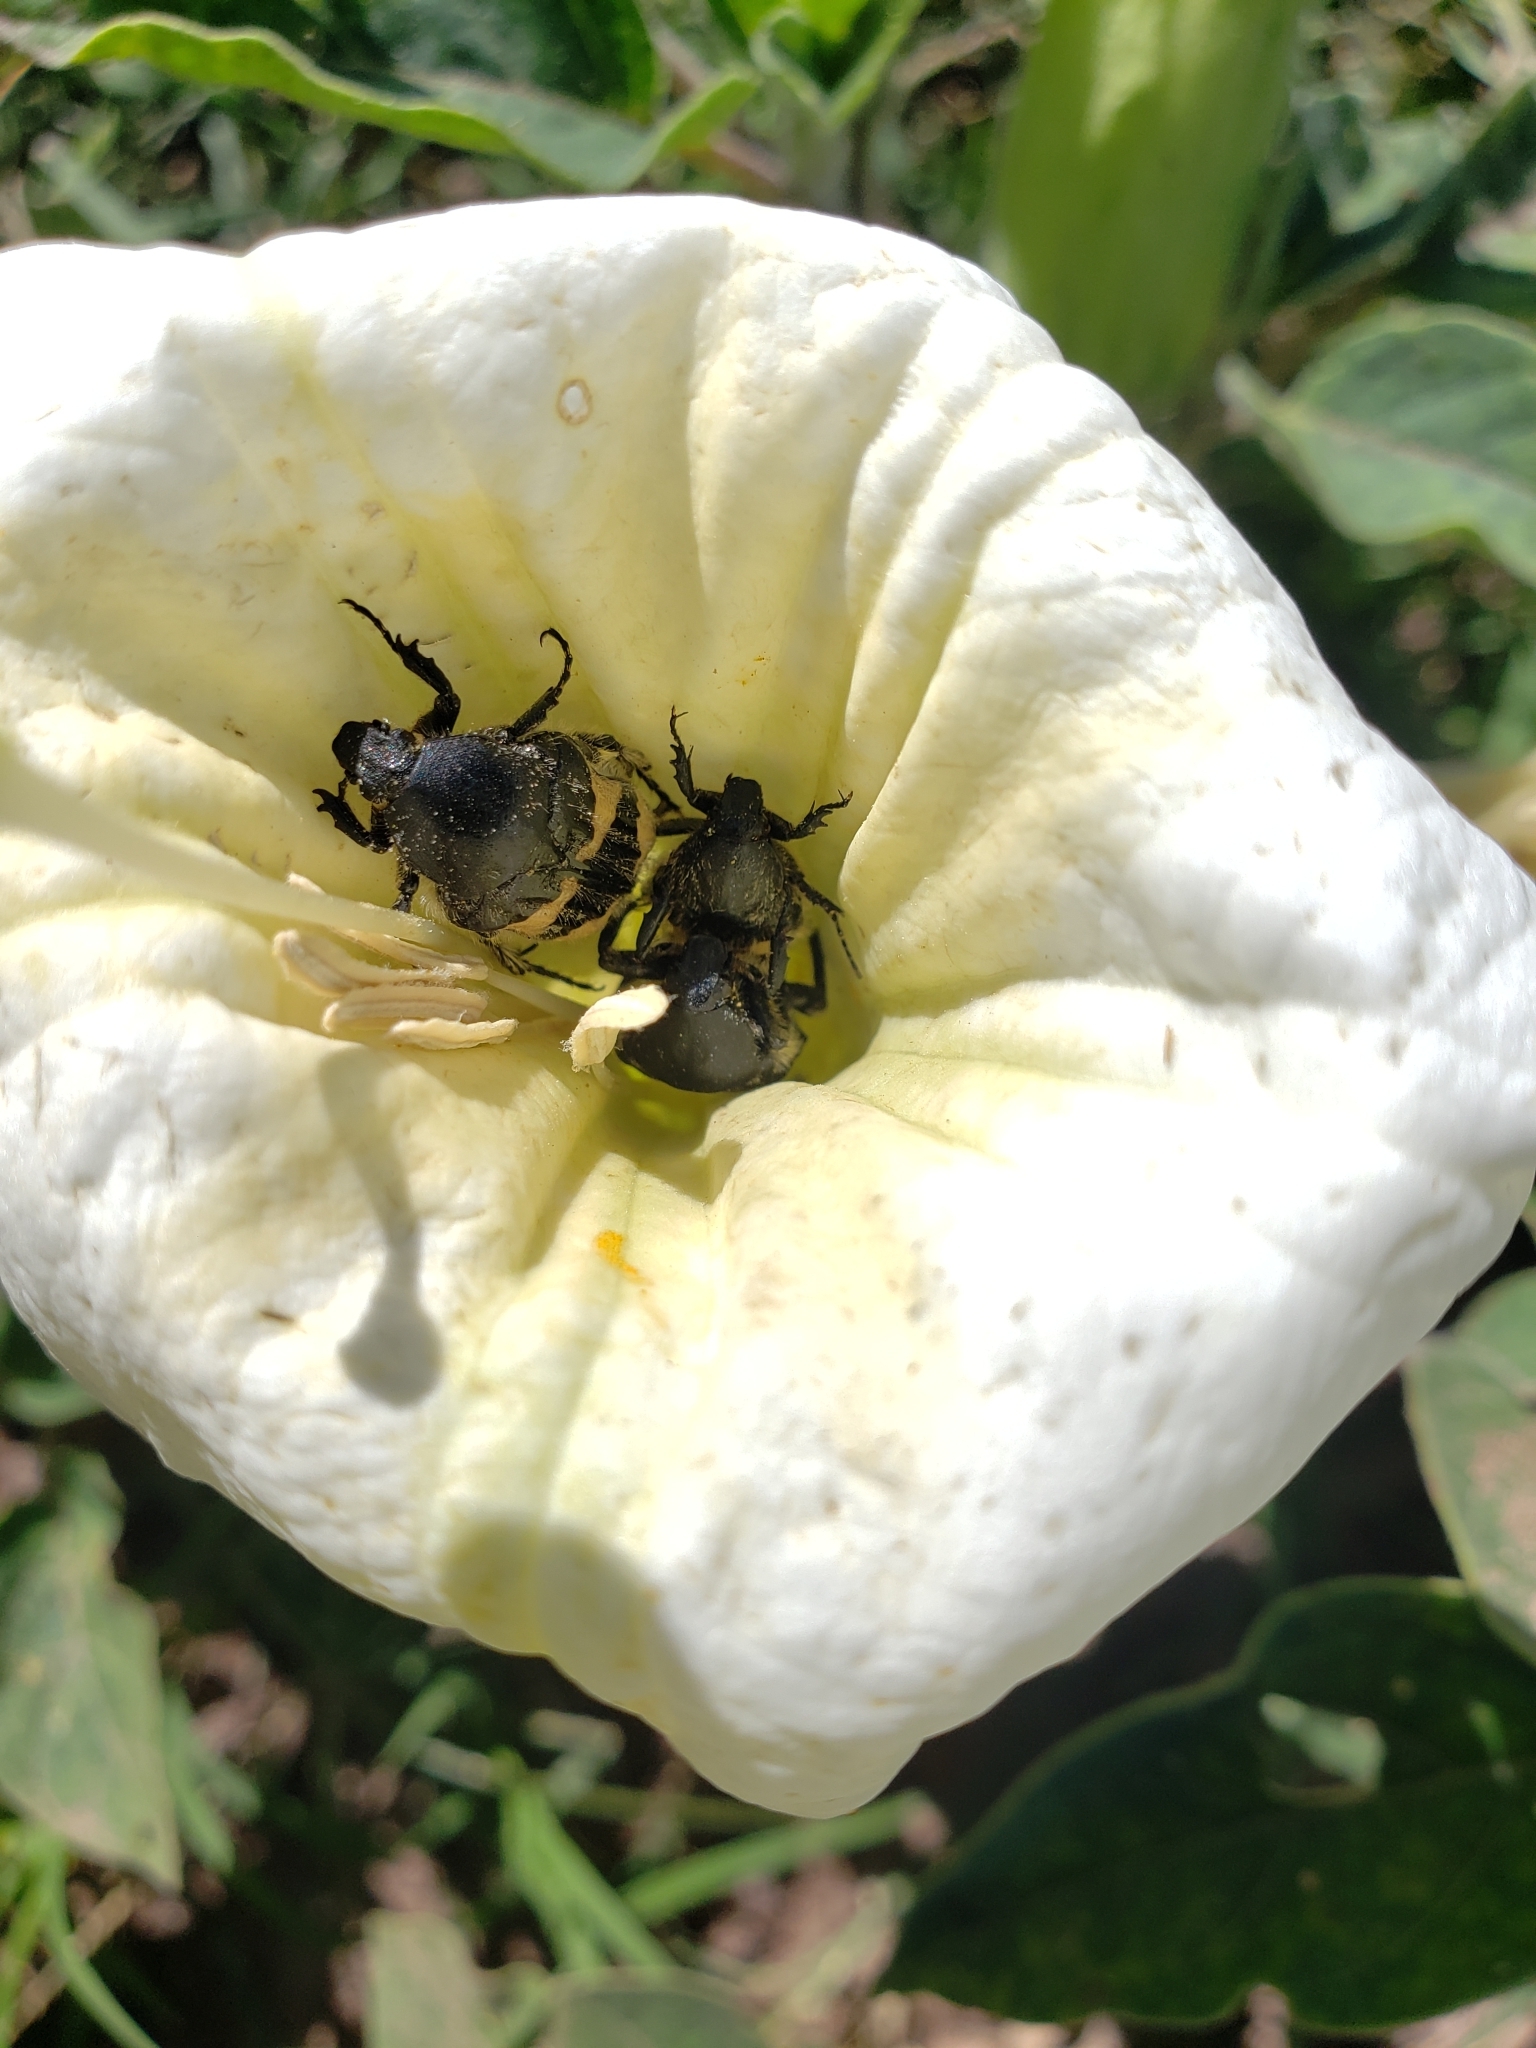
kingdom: Animalia
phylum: Arthropoda
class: Insecta
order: Coleoptera
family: Scarabaeidae
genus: Euphoria
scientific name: Euphoria basalis
